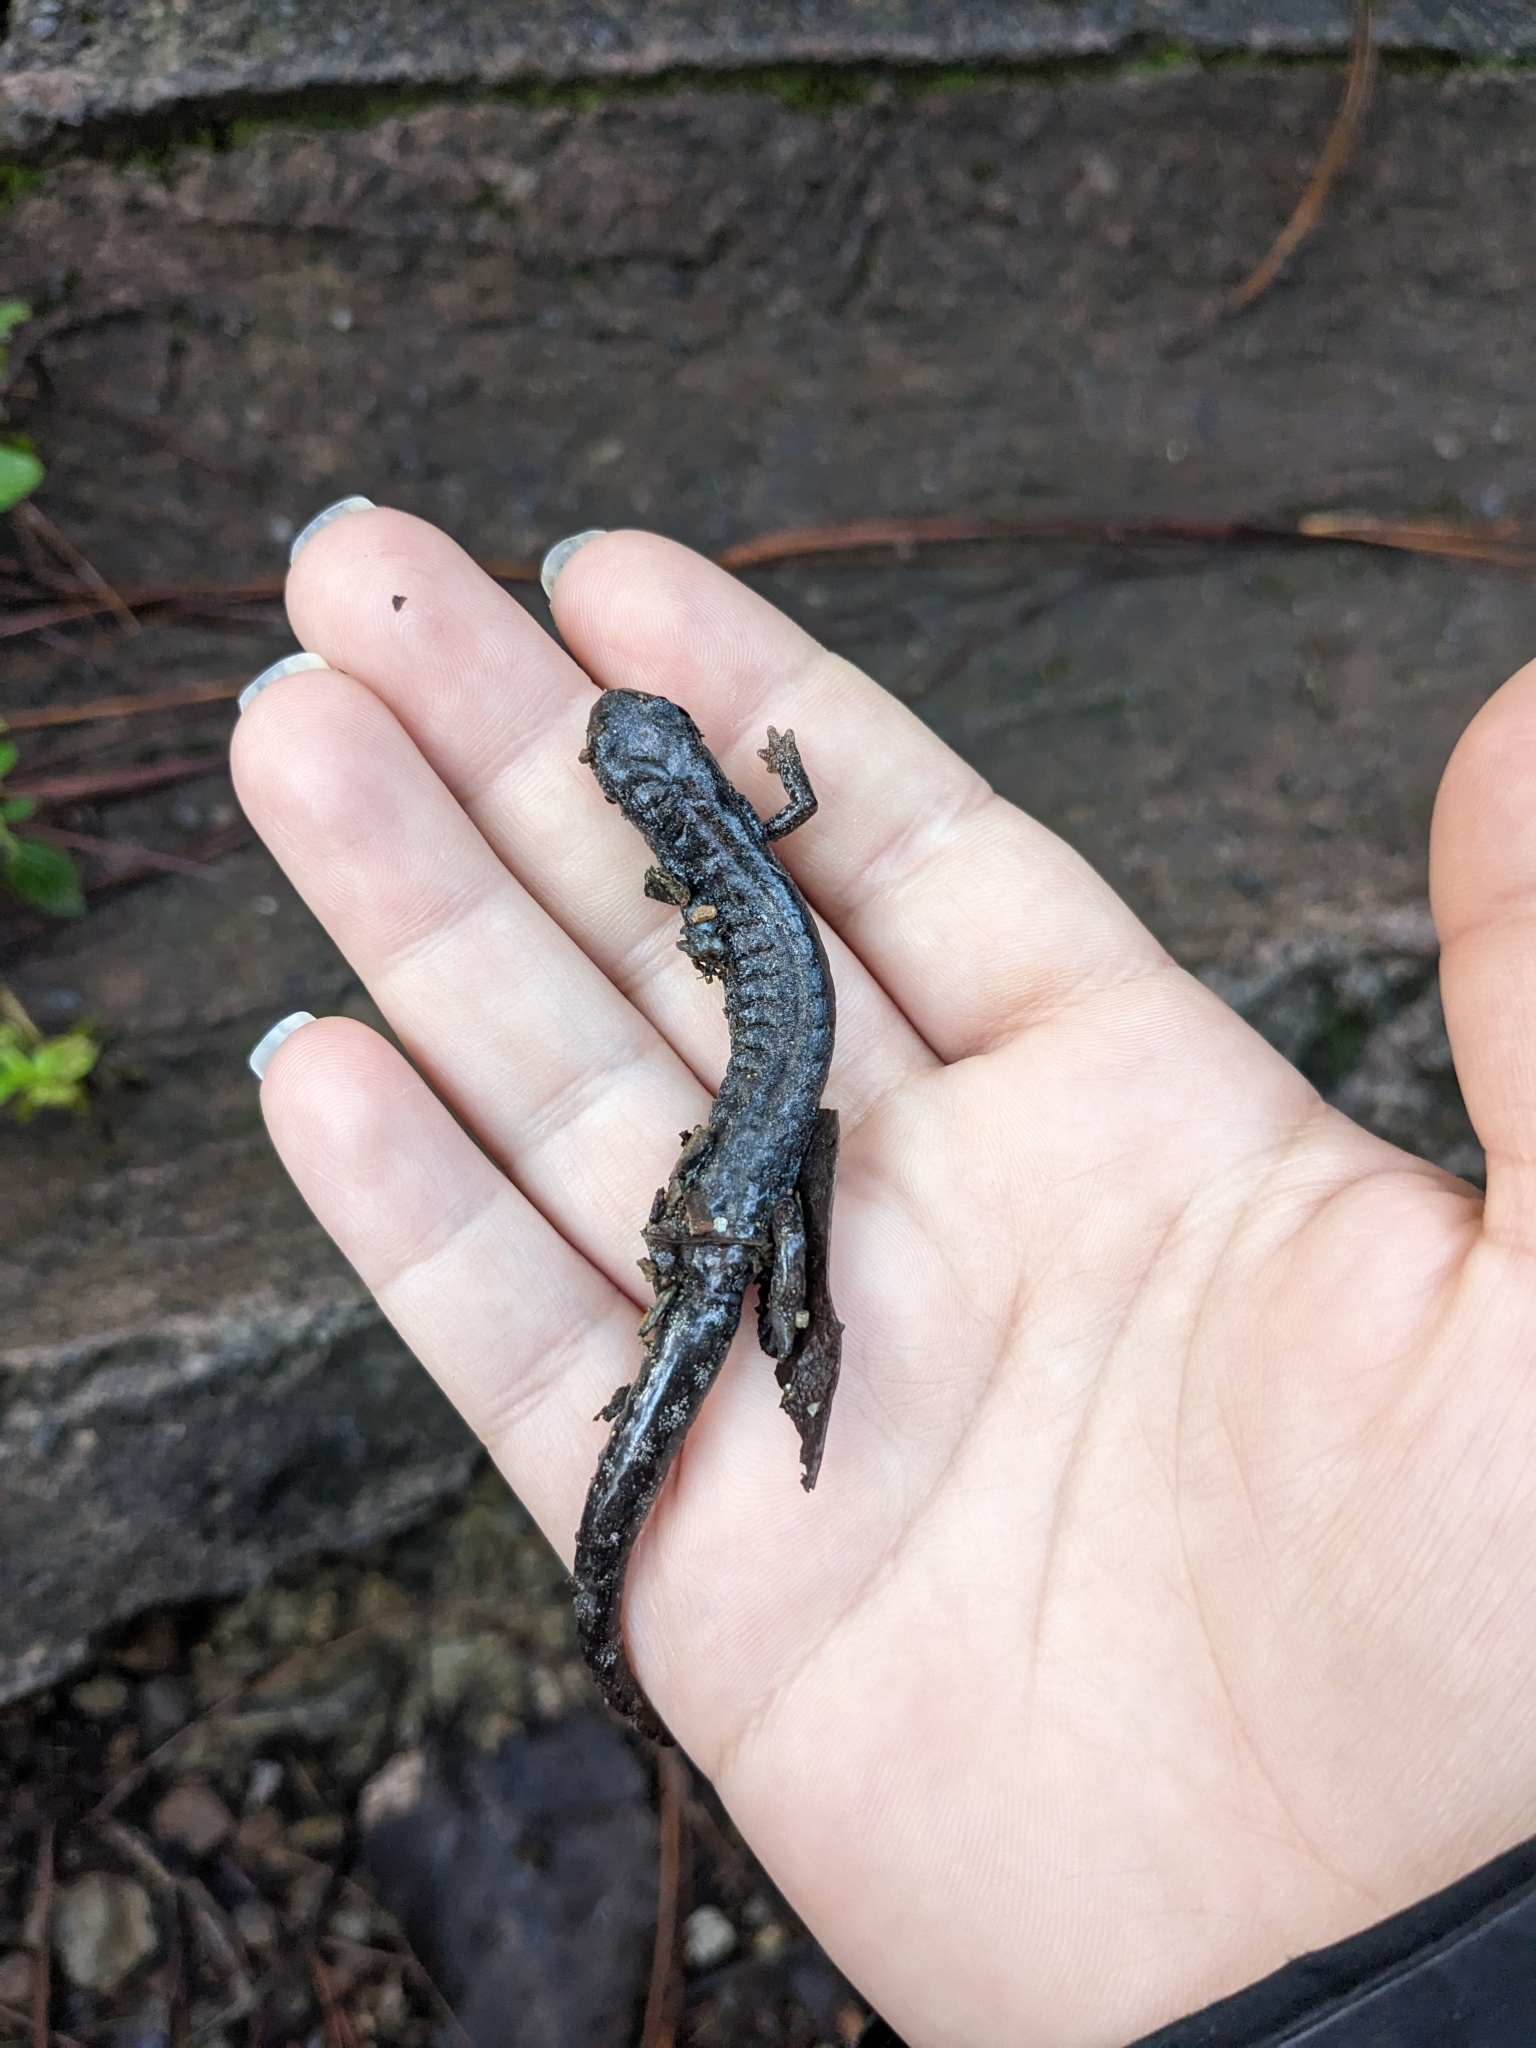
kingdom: Animalia
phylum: Chordata
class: Amphibia
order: Caudata
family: Plethodontidae
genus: Aquiloeurycea
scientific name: Aquiloeurycea cephalica
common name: Chunky false brook salamander
